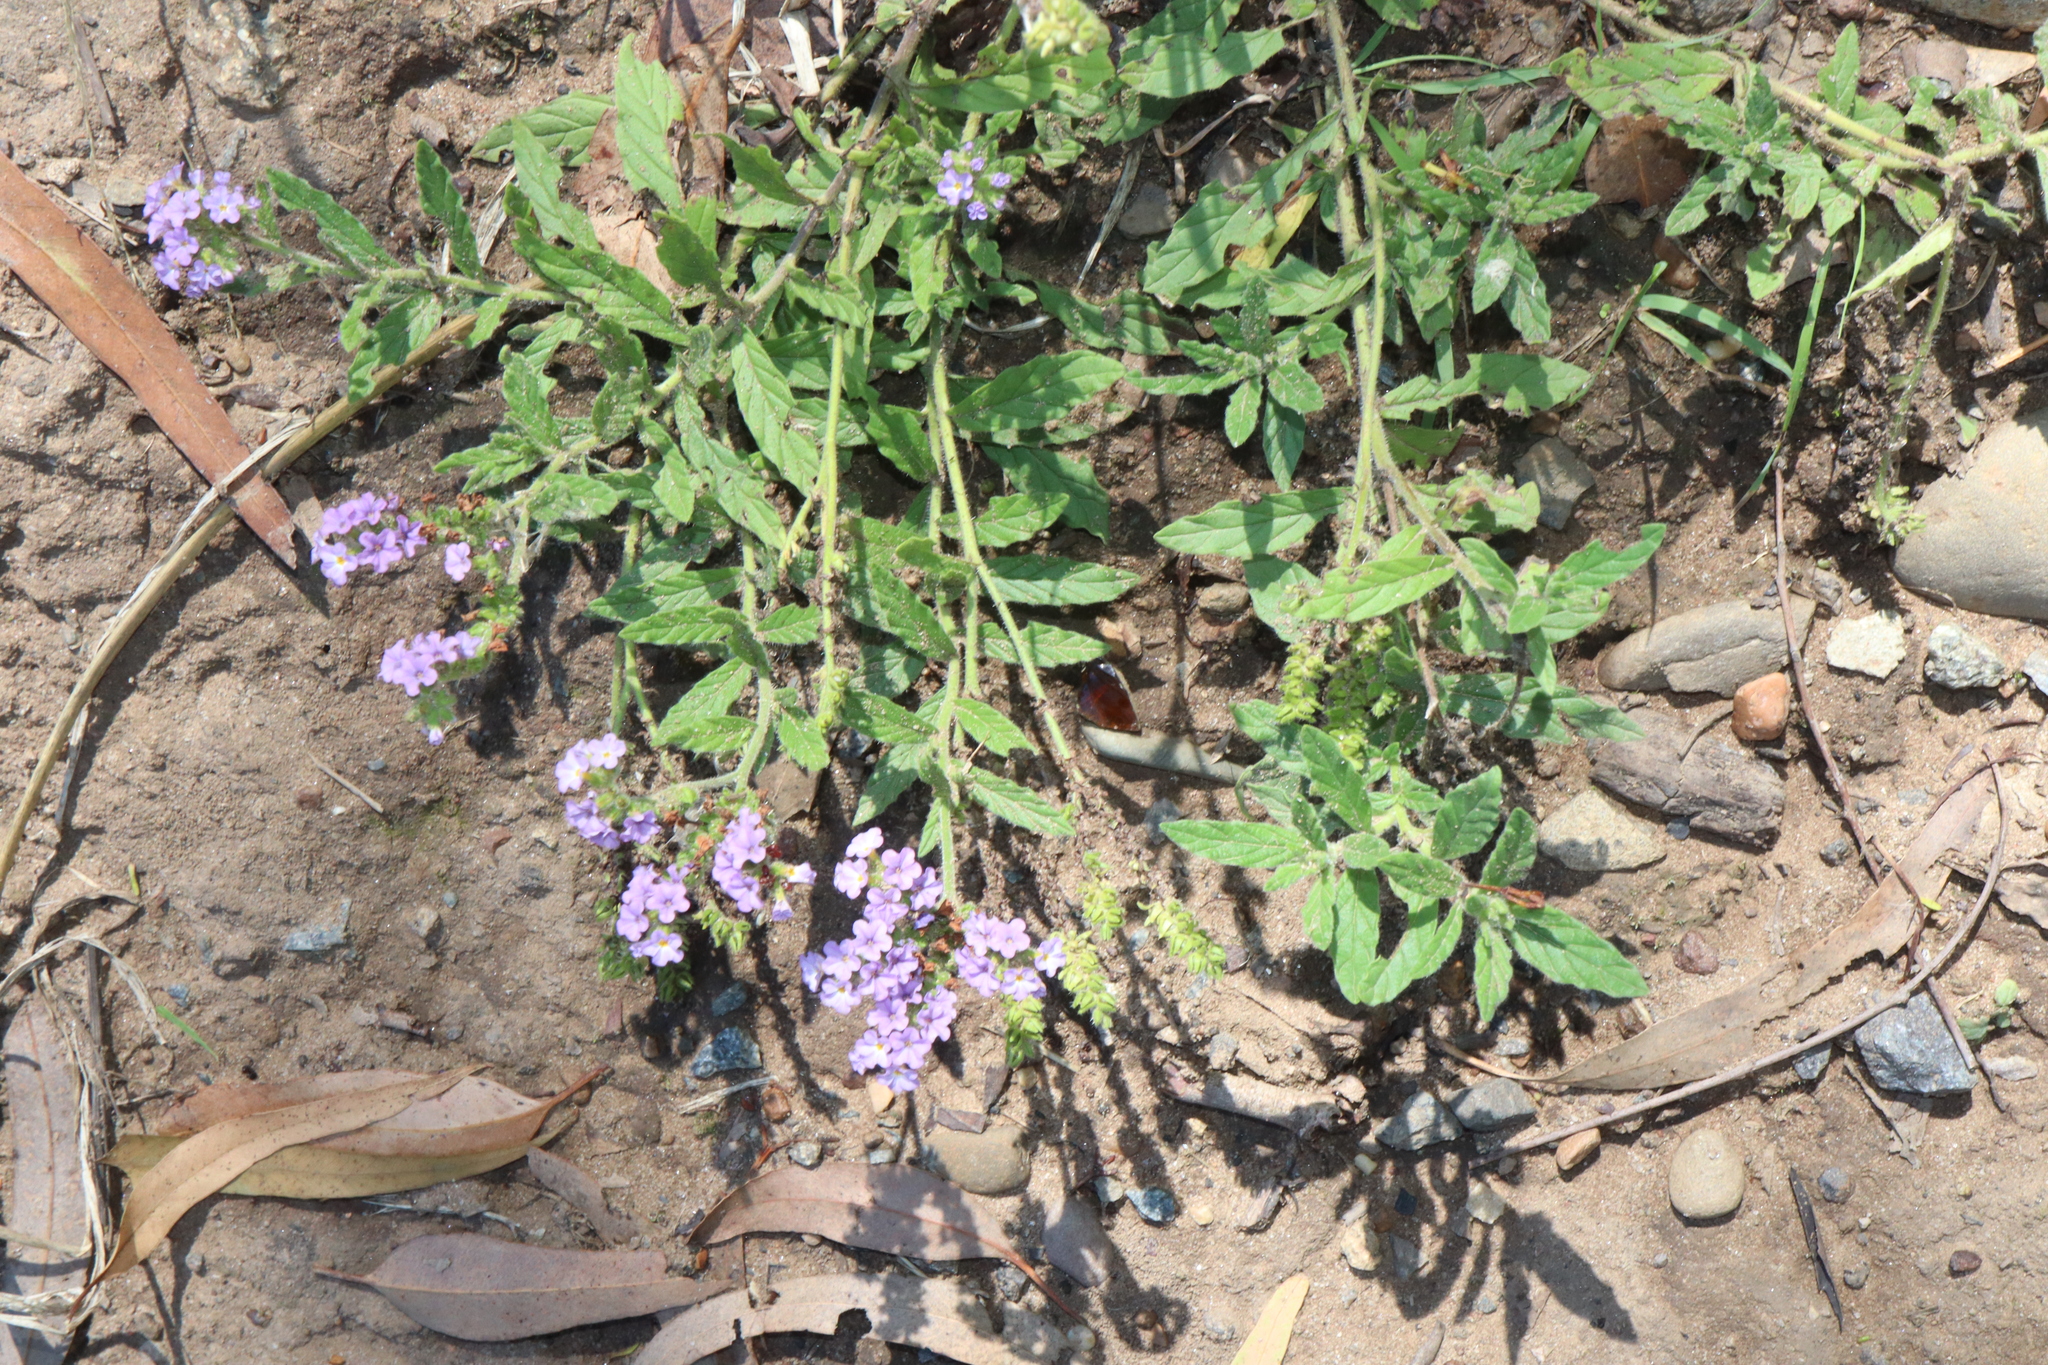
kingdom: Plantae
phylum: Tracheophyta
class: Magnoliopsida
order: Boraginales
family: Heliotropiaceae
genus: Heliotropium
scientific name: Heliotropium amplexicaule
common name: Clasping heliotrope
